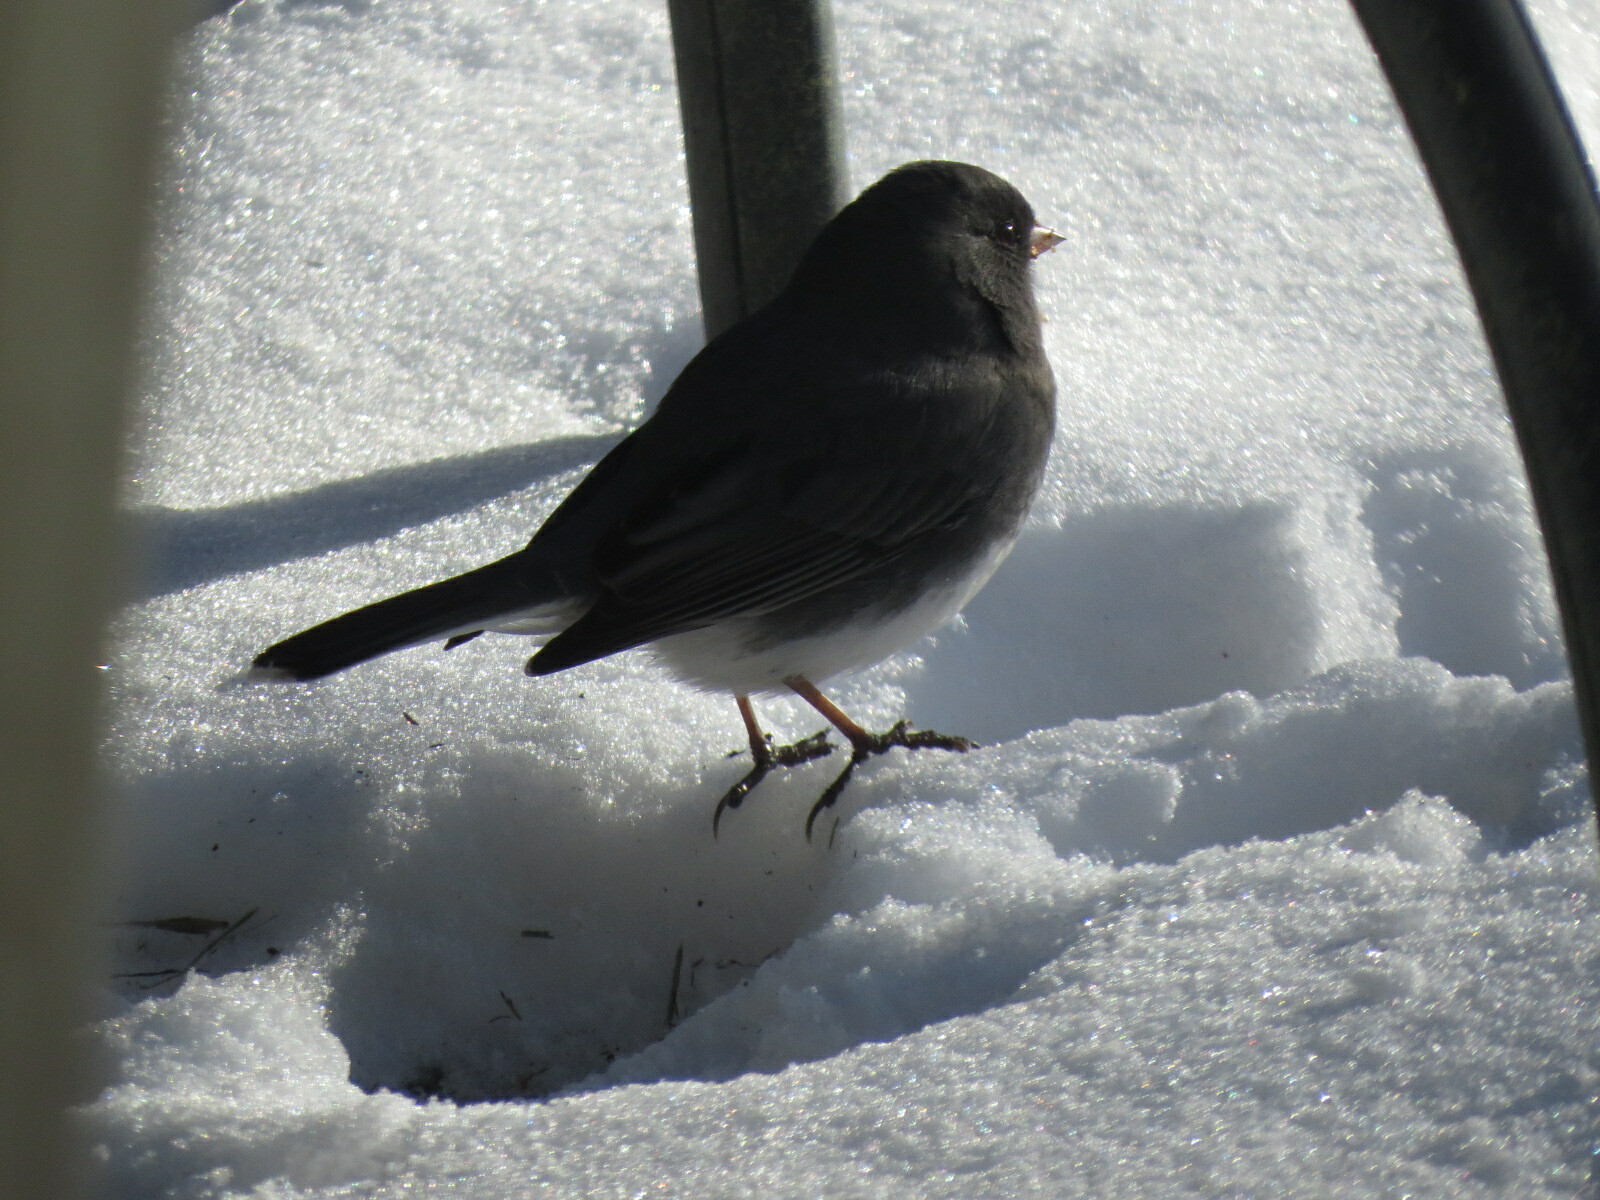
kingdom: Animalia
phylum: Chordata
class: Aves
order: Passeriformes
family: Passerellidae
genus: Junco
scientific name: Junco hyemalis
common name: Dark-eyed junco
